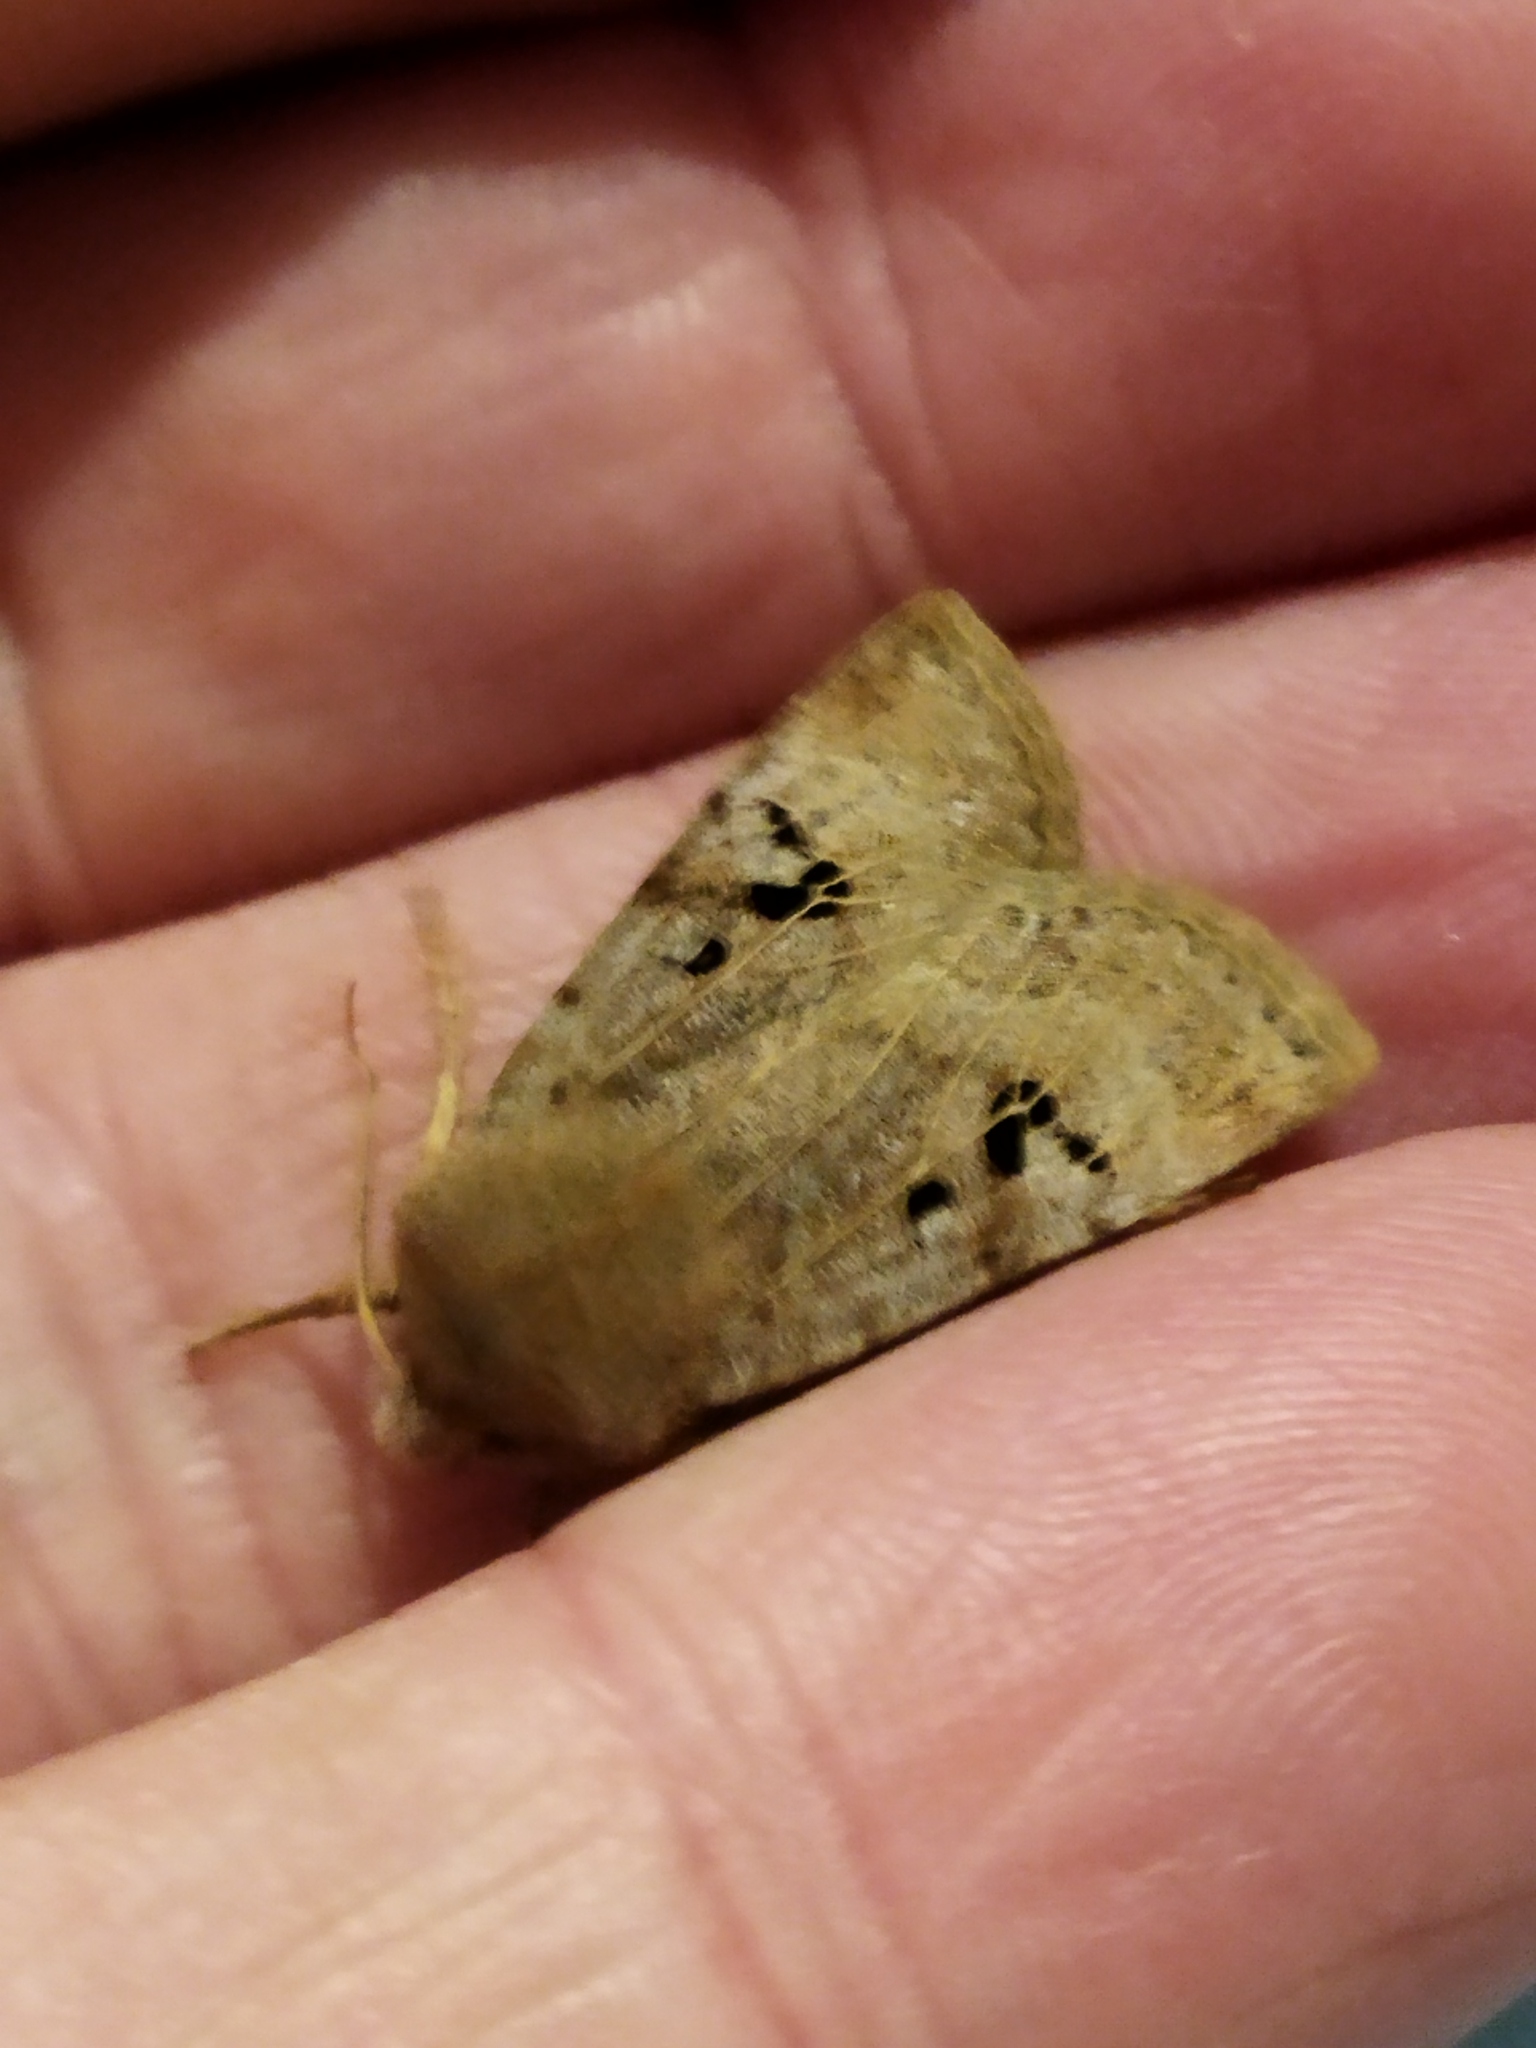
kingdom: Animalia
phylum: Arthropoda
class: Insecta
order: Lepidoptera
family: Noctuidae
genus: Conistra
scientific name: Conistra rubiginosa
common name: Black-spotted chestnut
